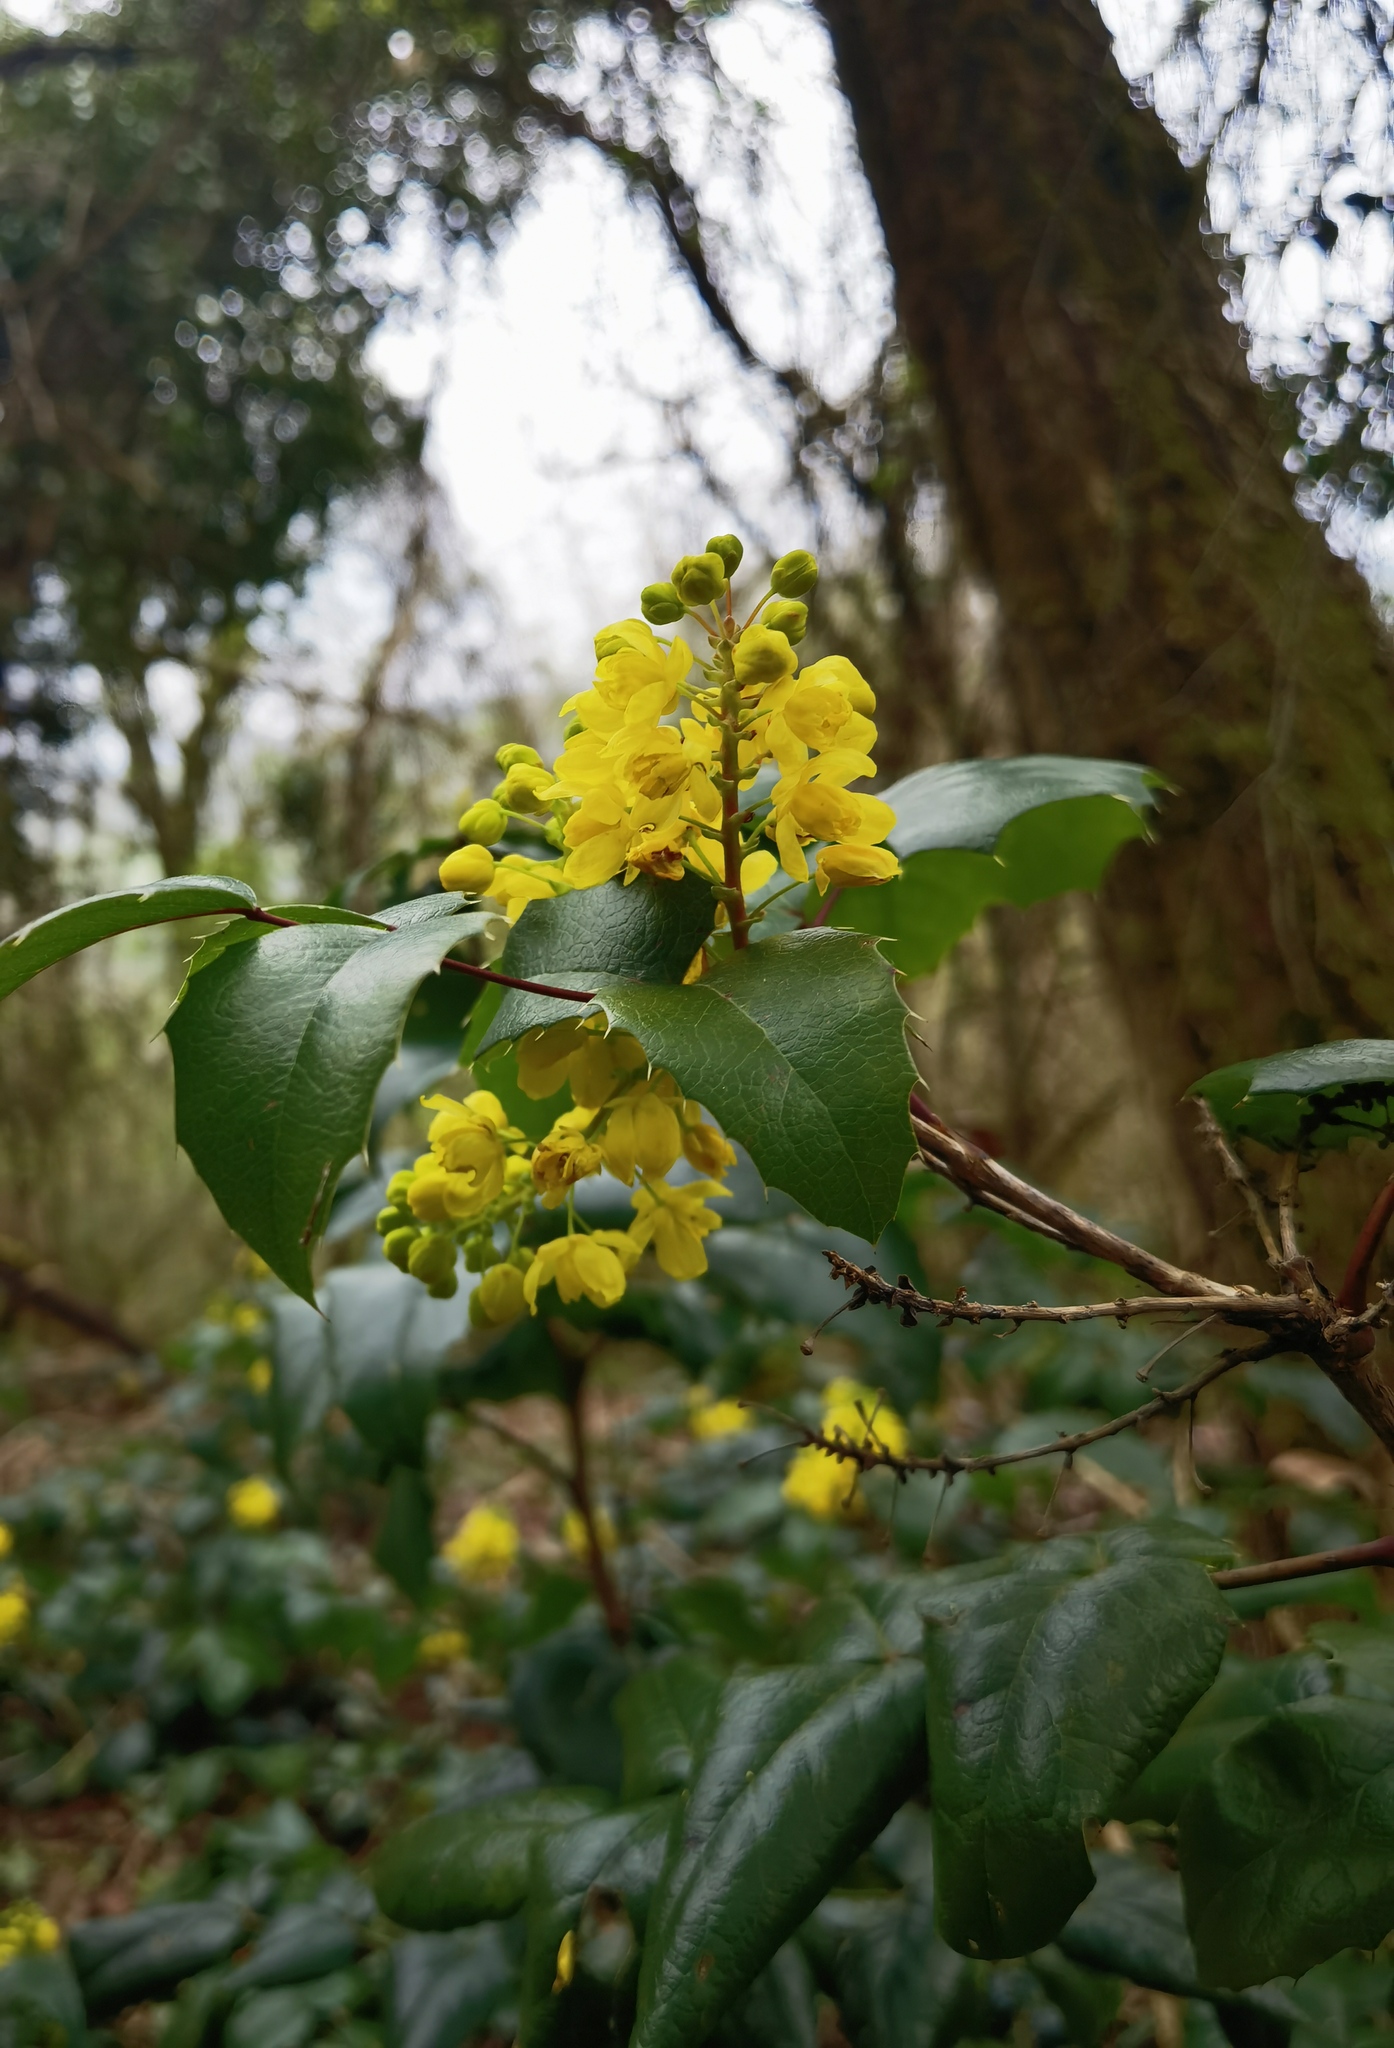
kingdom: Plantae
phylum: Tracheophyta
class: Magnoliopsida
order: Ranunculales
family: Berberidaceae
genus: Mahonia
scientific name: Mahonia aquifolium
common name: Oregon-grape
